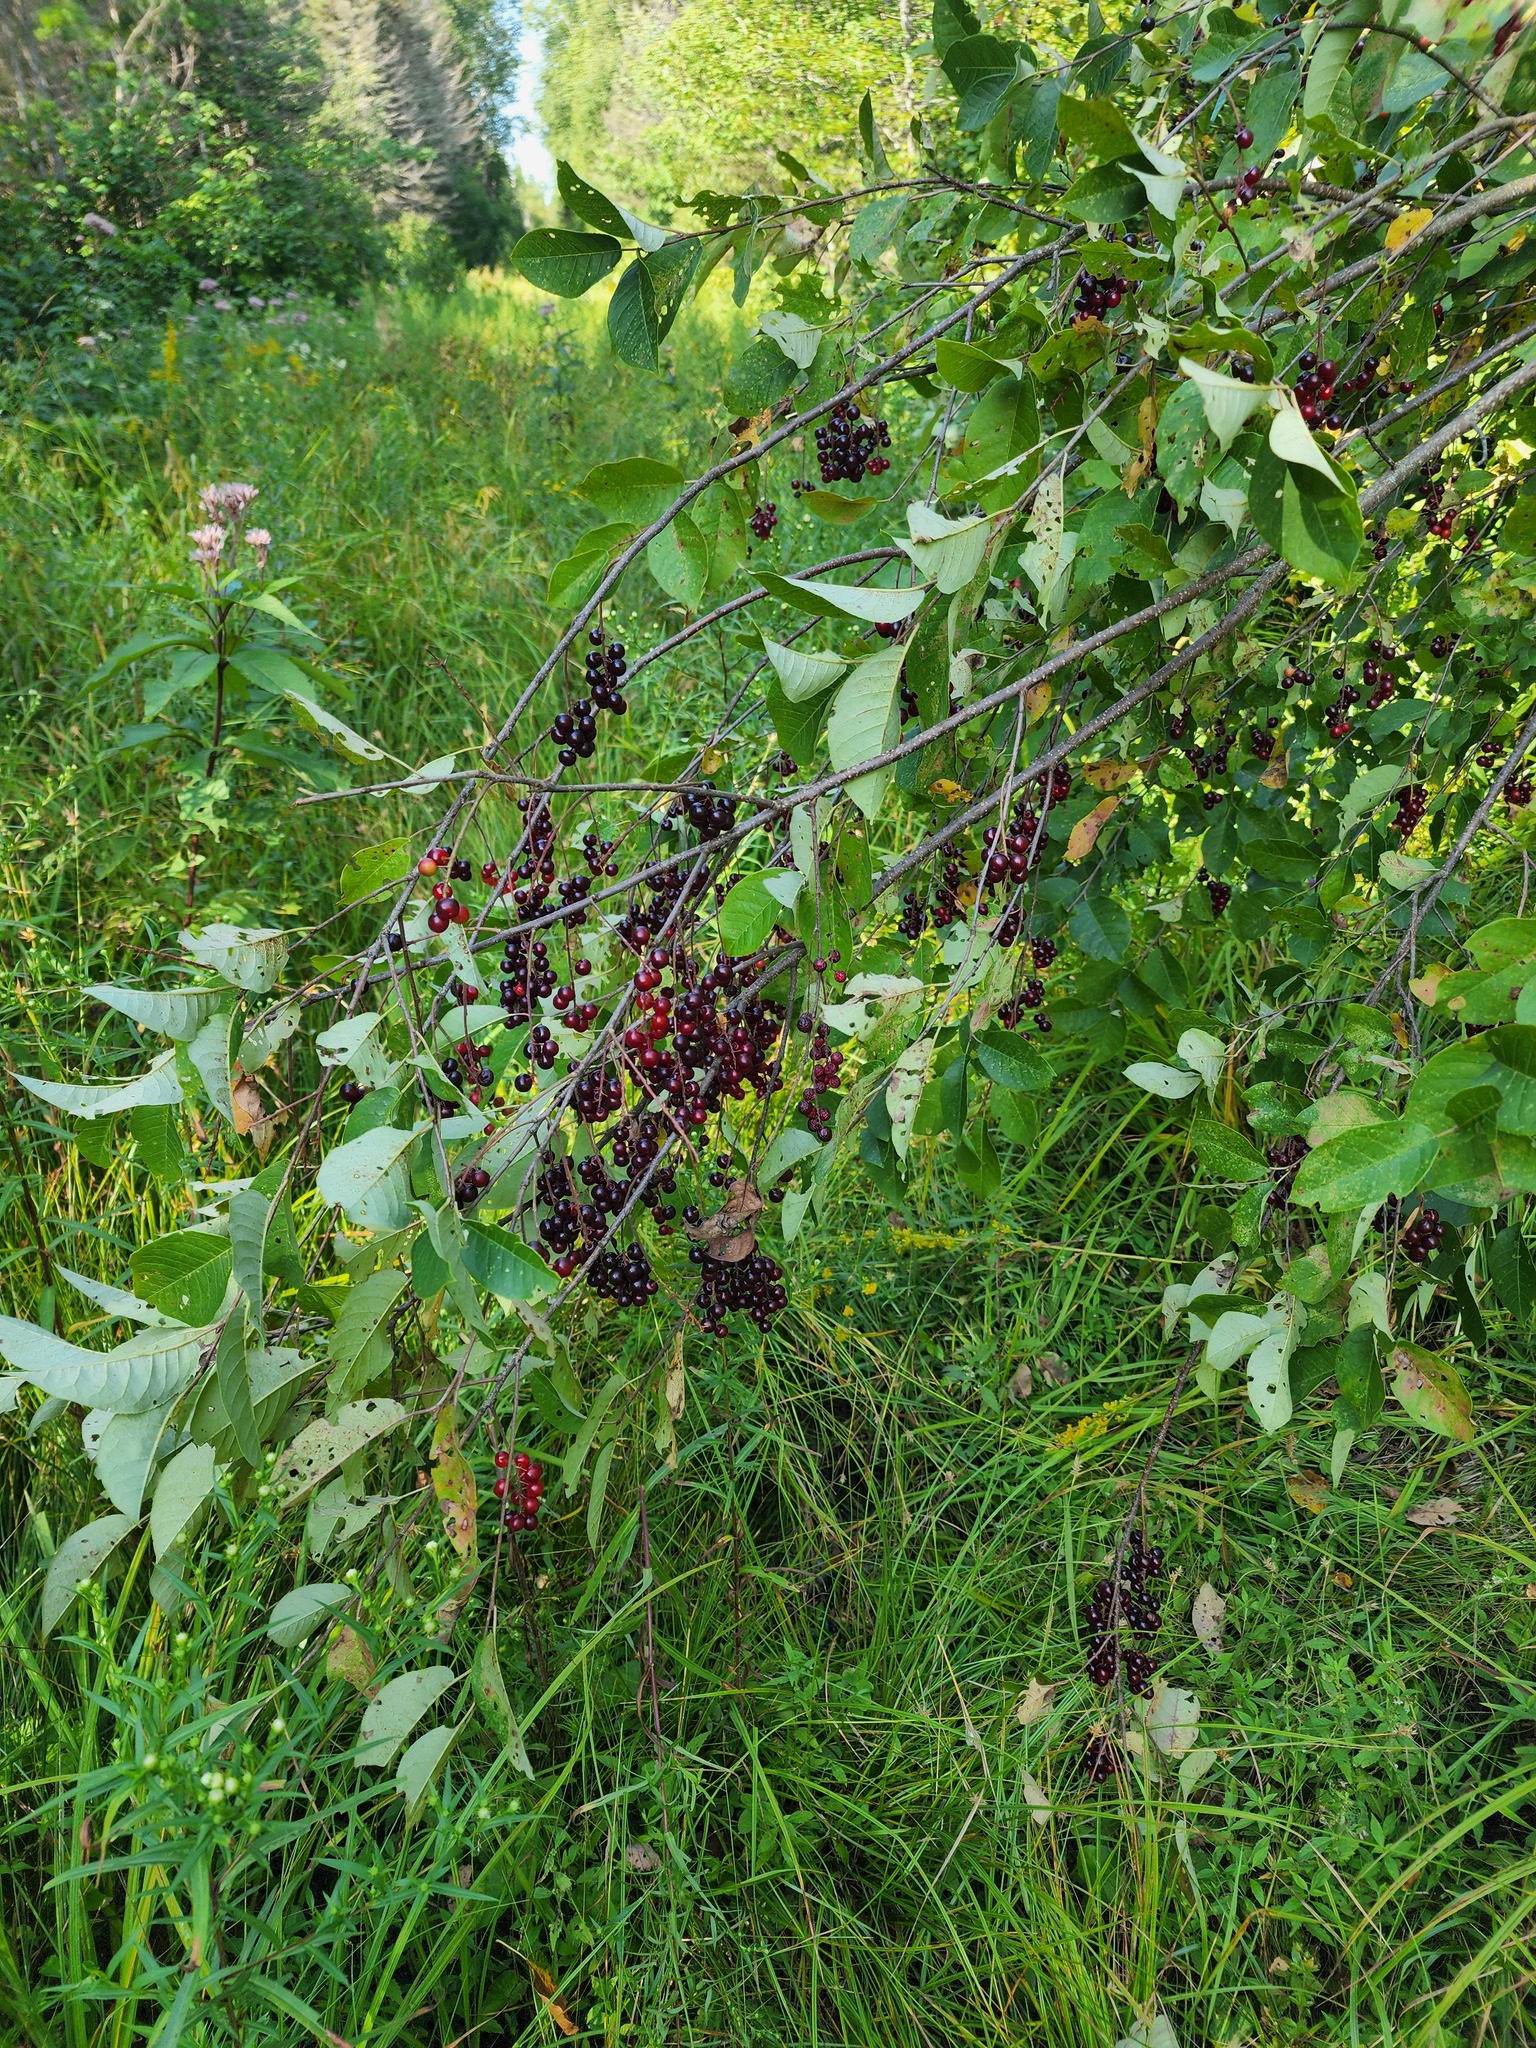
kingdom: Plantae
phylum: Tracheophyta
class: Magnoliopsida
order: Rosales
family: Rosaceae
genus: Prunus
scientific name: Prunus virginiana
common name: Chokecherry
